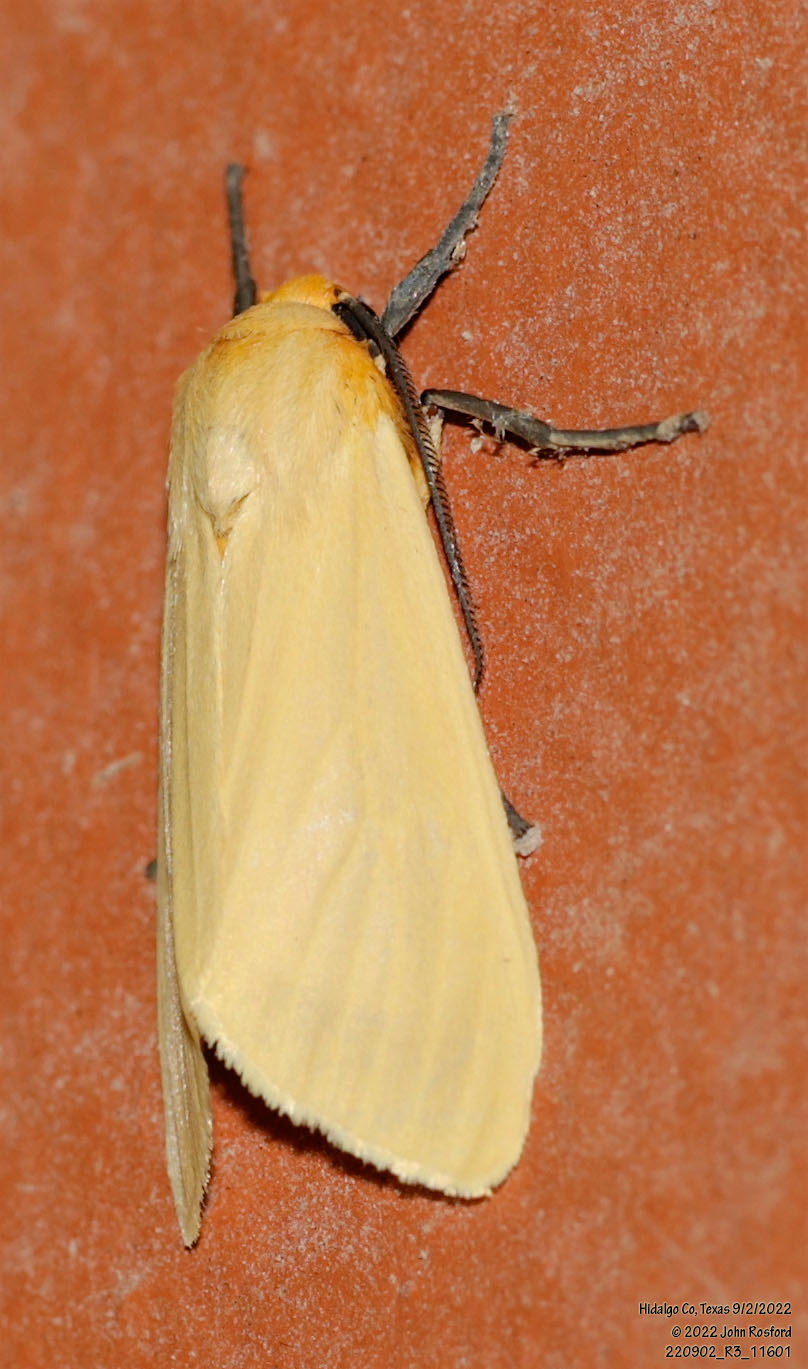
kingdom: Animalia
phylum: Arthropoda
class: Insecta
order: Lepidoptera
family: Erebidae
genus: Pareuchaetes
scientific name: Pareuchaetes insulata
